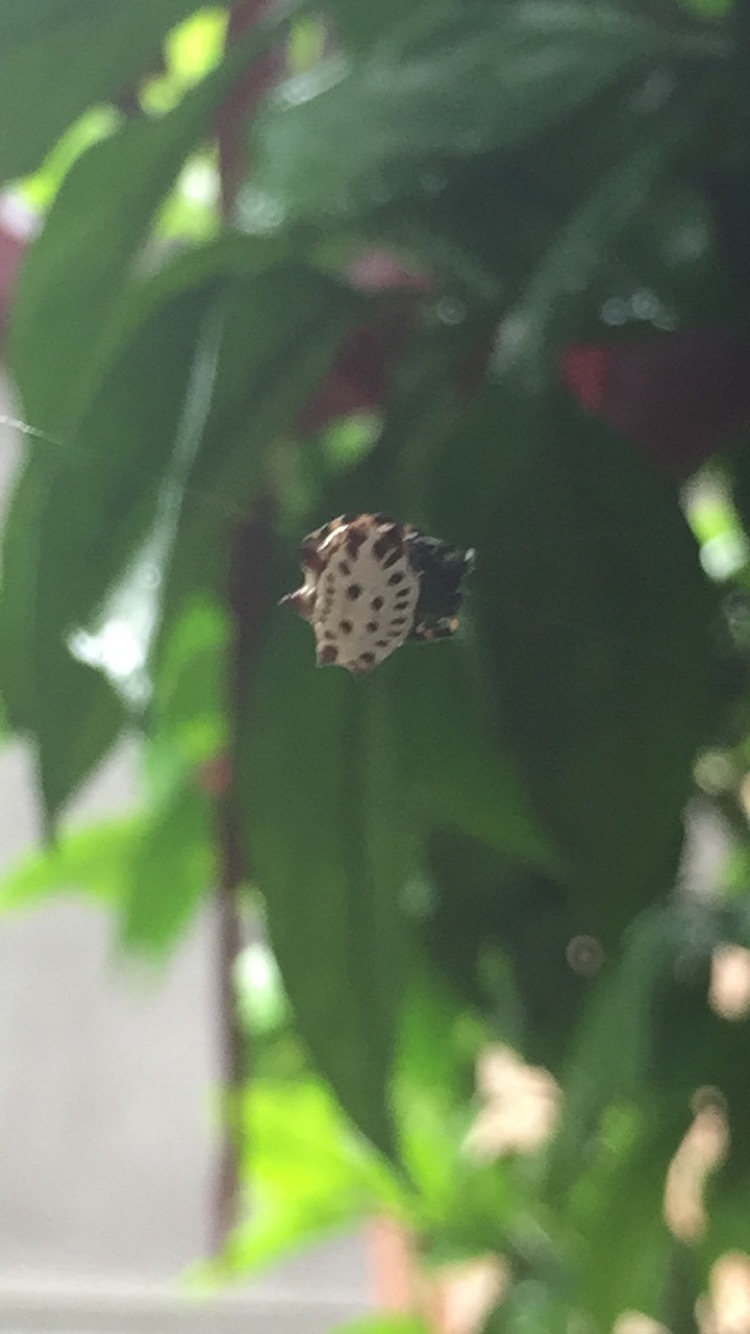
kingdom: Animalia
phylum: Arthropoda
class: Arachnida
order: Araneae
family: Araneidae
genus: Gasteracantha
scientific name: Gasteracantha cancriformis
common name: Orb weavers
